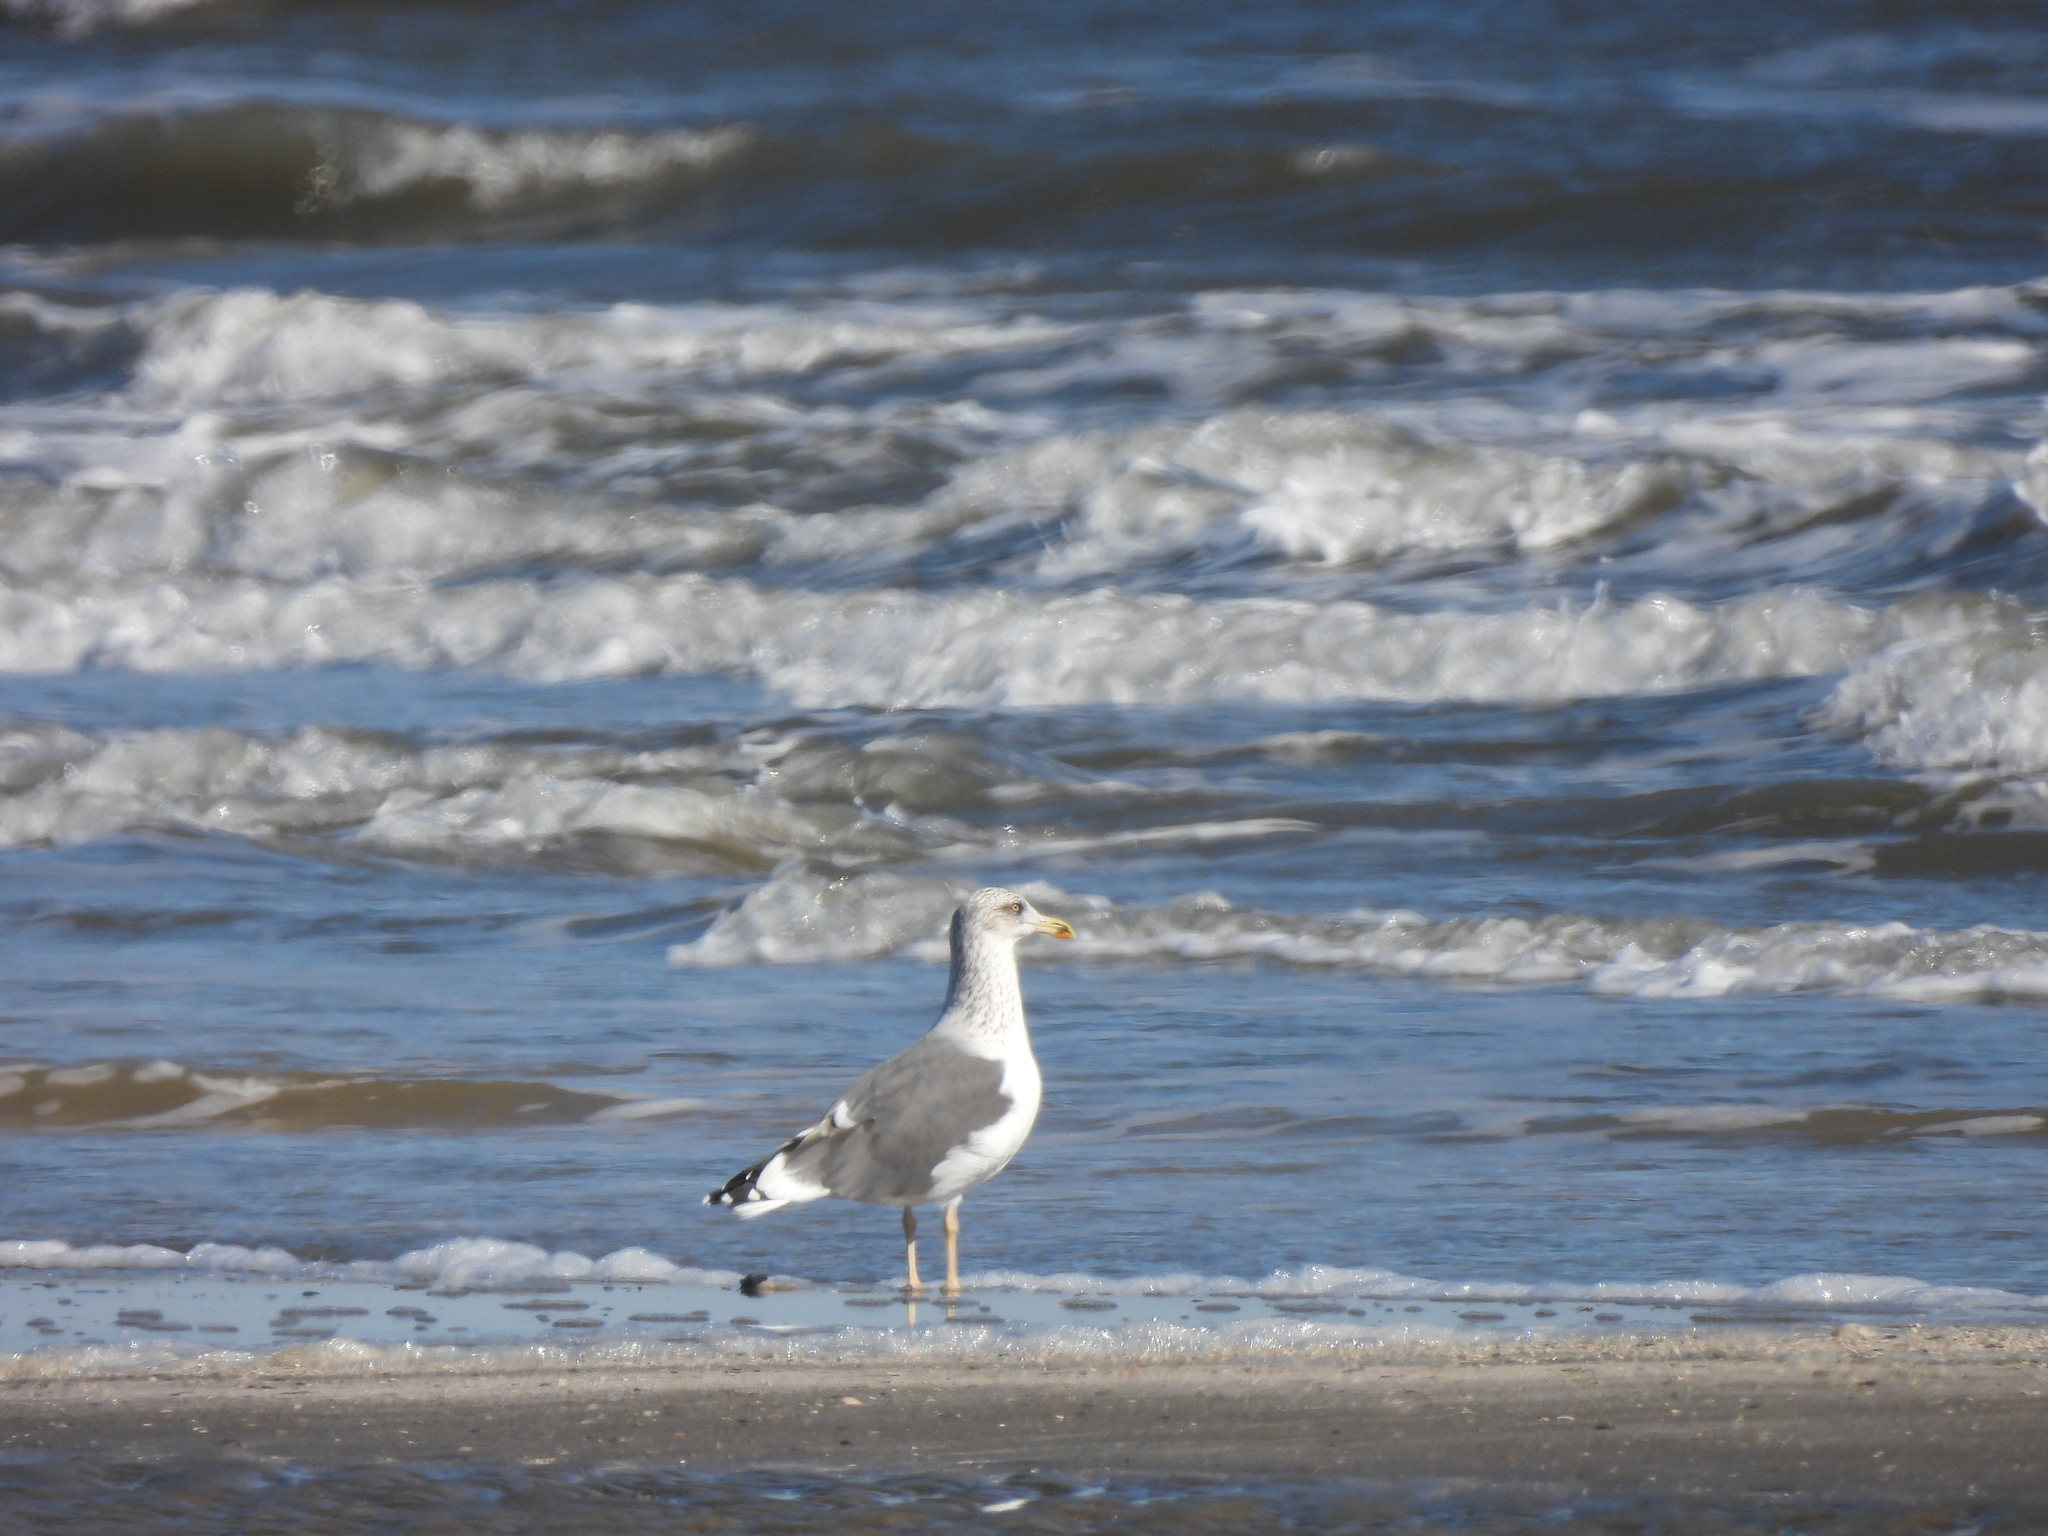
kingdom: Animalia
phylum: Chordata
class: Aves
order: Charadriiformes
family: Laridae
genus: Larus
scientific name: Larus fuscus
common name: Lesser black-backed gull
